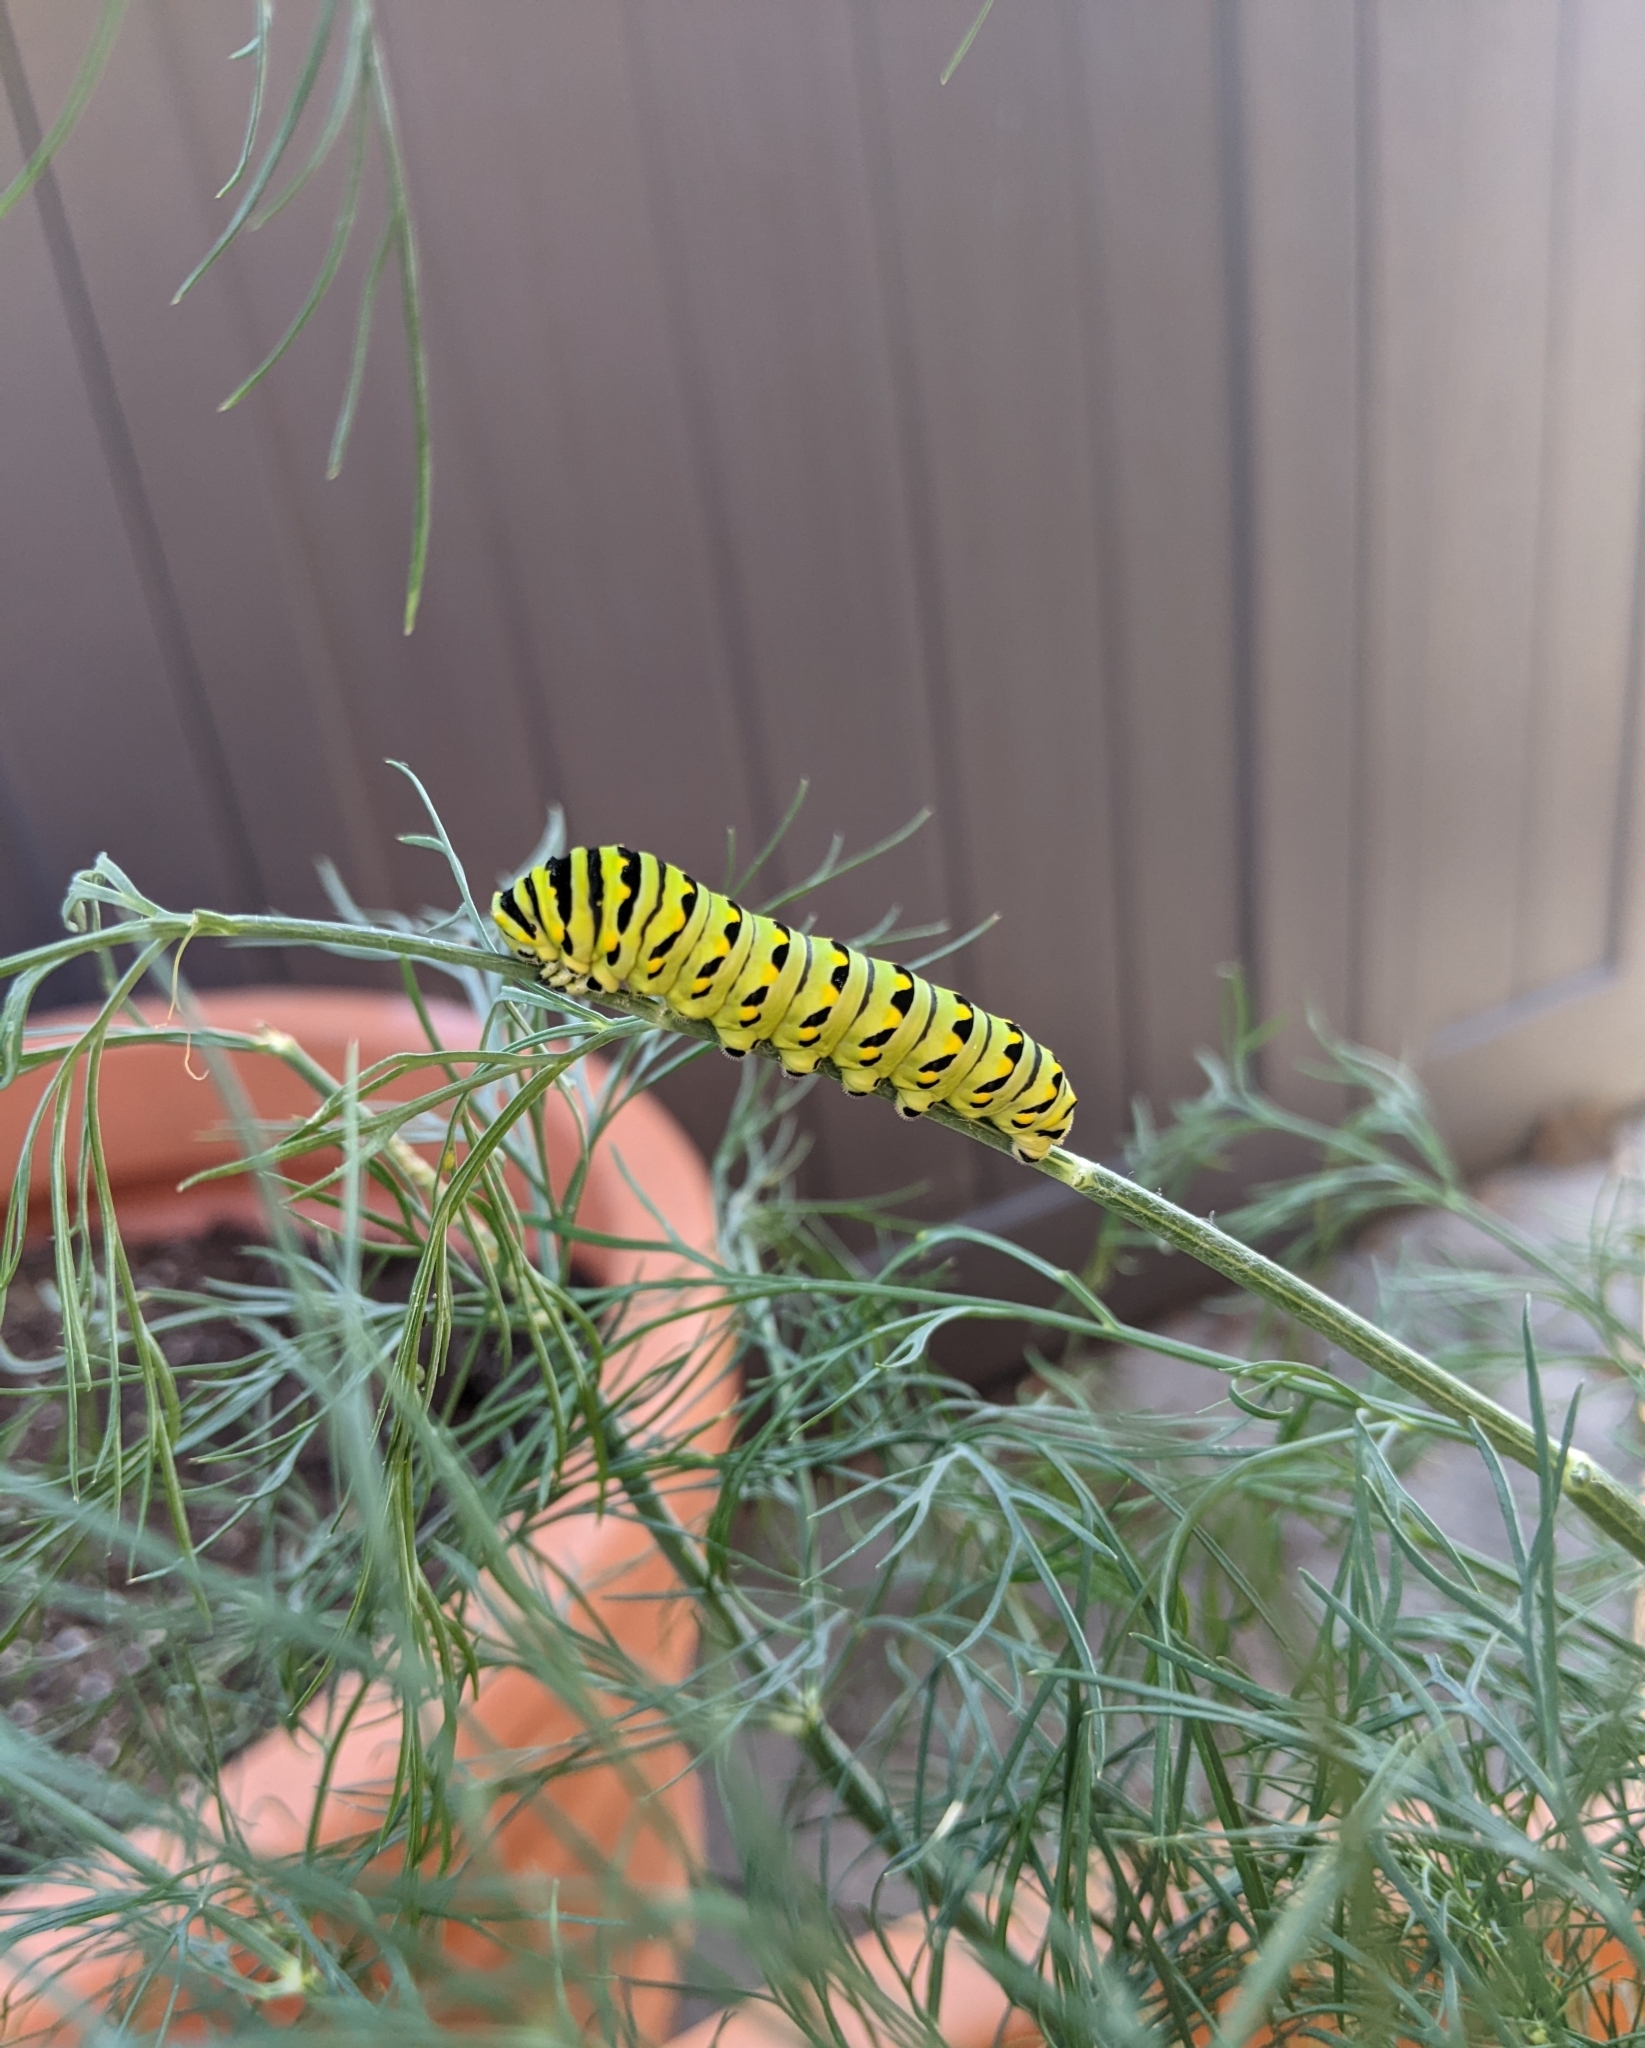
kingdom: Animalia
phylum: Arthropoda
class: Insecta
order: Lepidoptera
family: Papilionidae
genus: Papilio
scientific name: Papilio polyxenes
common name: Black swallowtail
